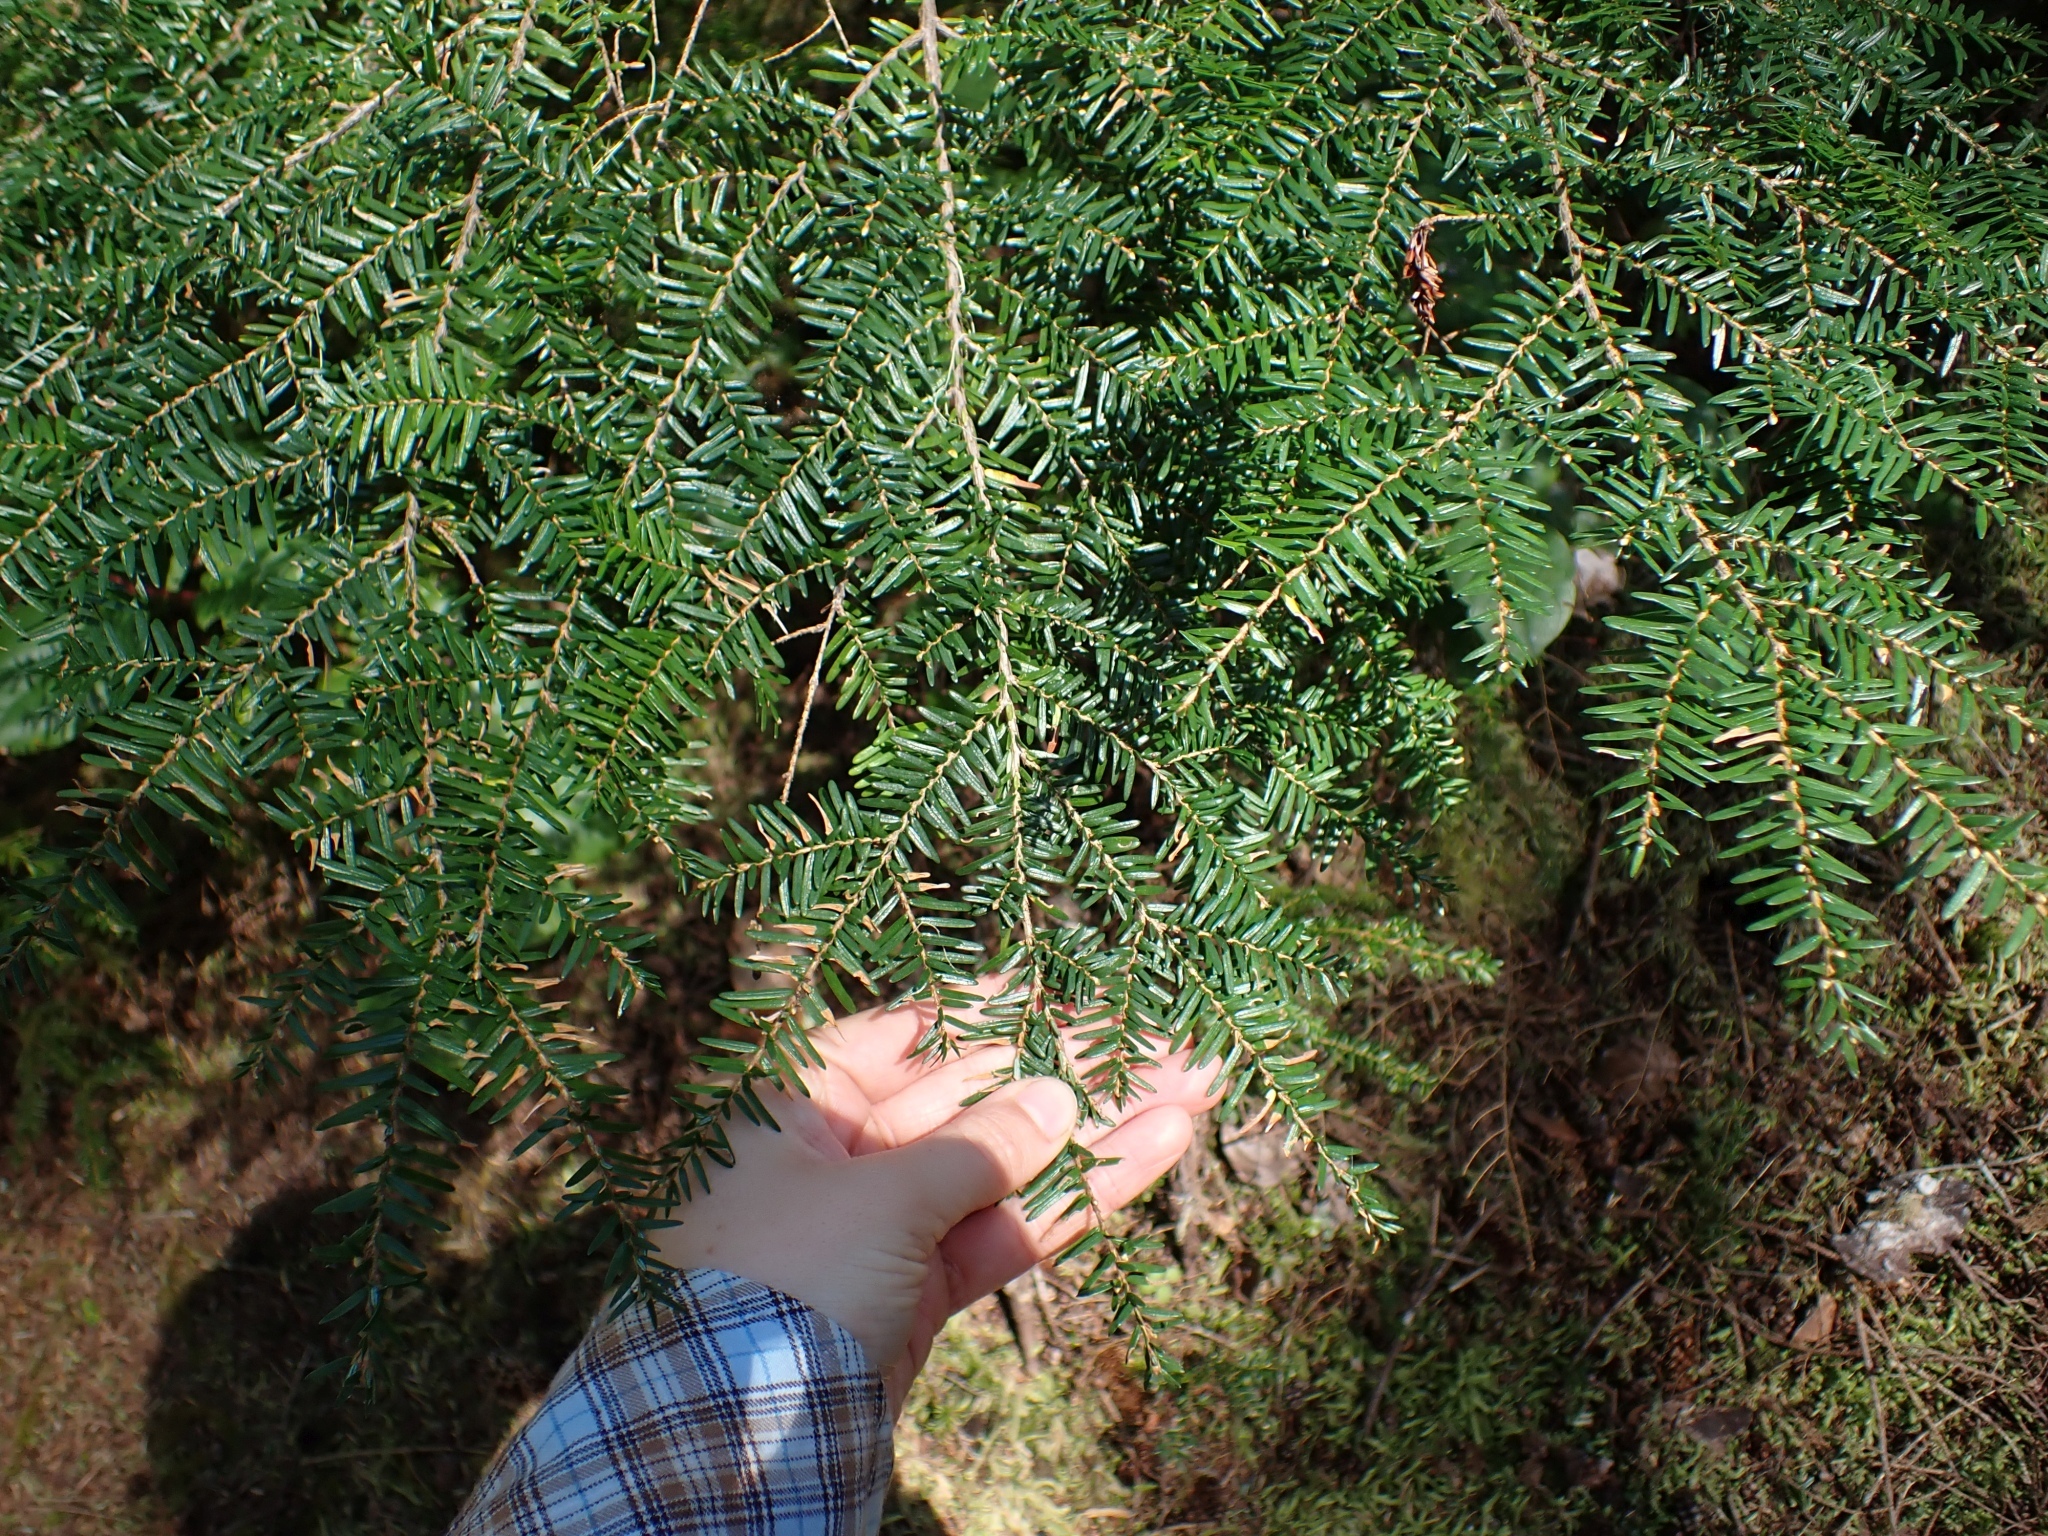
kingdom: Plantae
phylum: Tracheophyta
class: Pinopsida
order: Pinales
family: Pinaceae
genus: Tsuga
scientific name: Tsuga heterophylla
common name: Western hemlock
